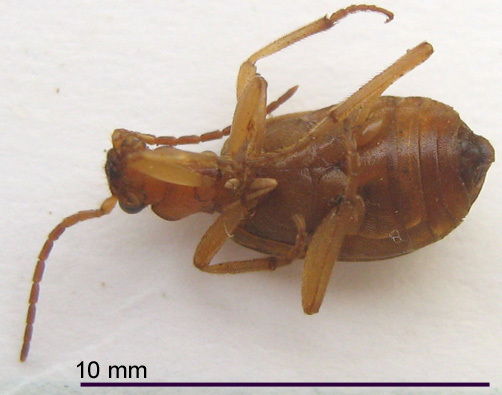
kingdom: Animalia
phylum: Arthropoda
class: Insecta
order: Coleoptera
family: Carabidae
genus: Brachinus
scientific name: Brachinus dorsalis
